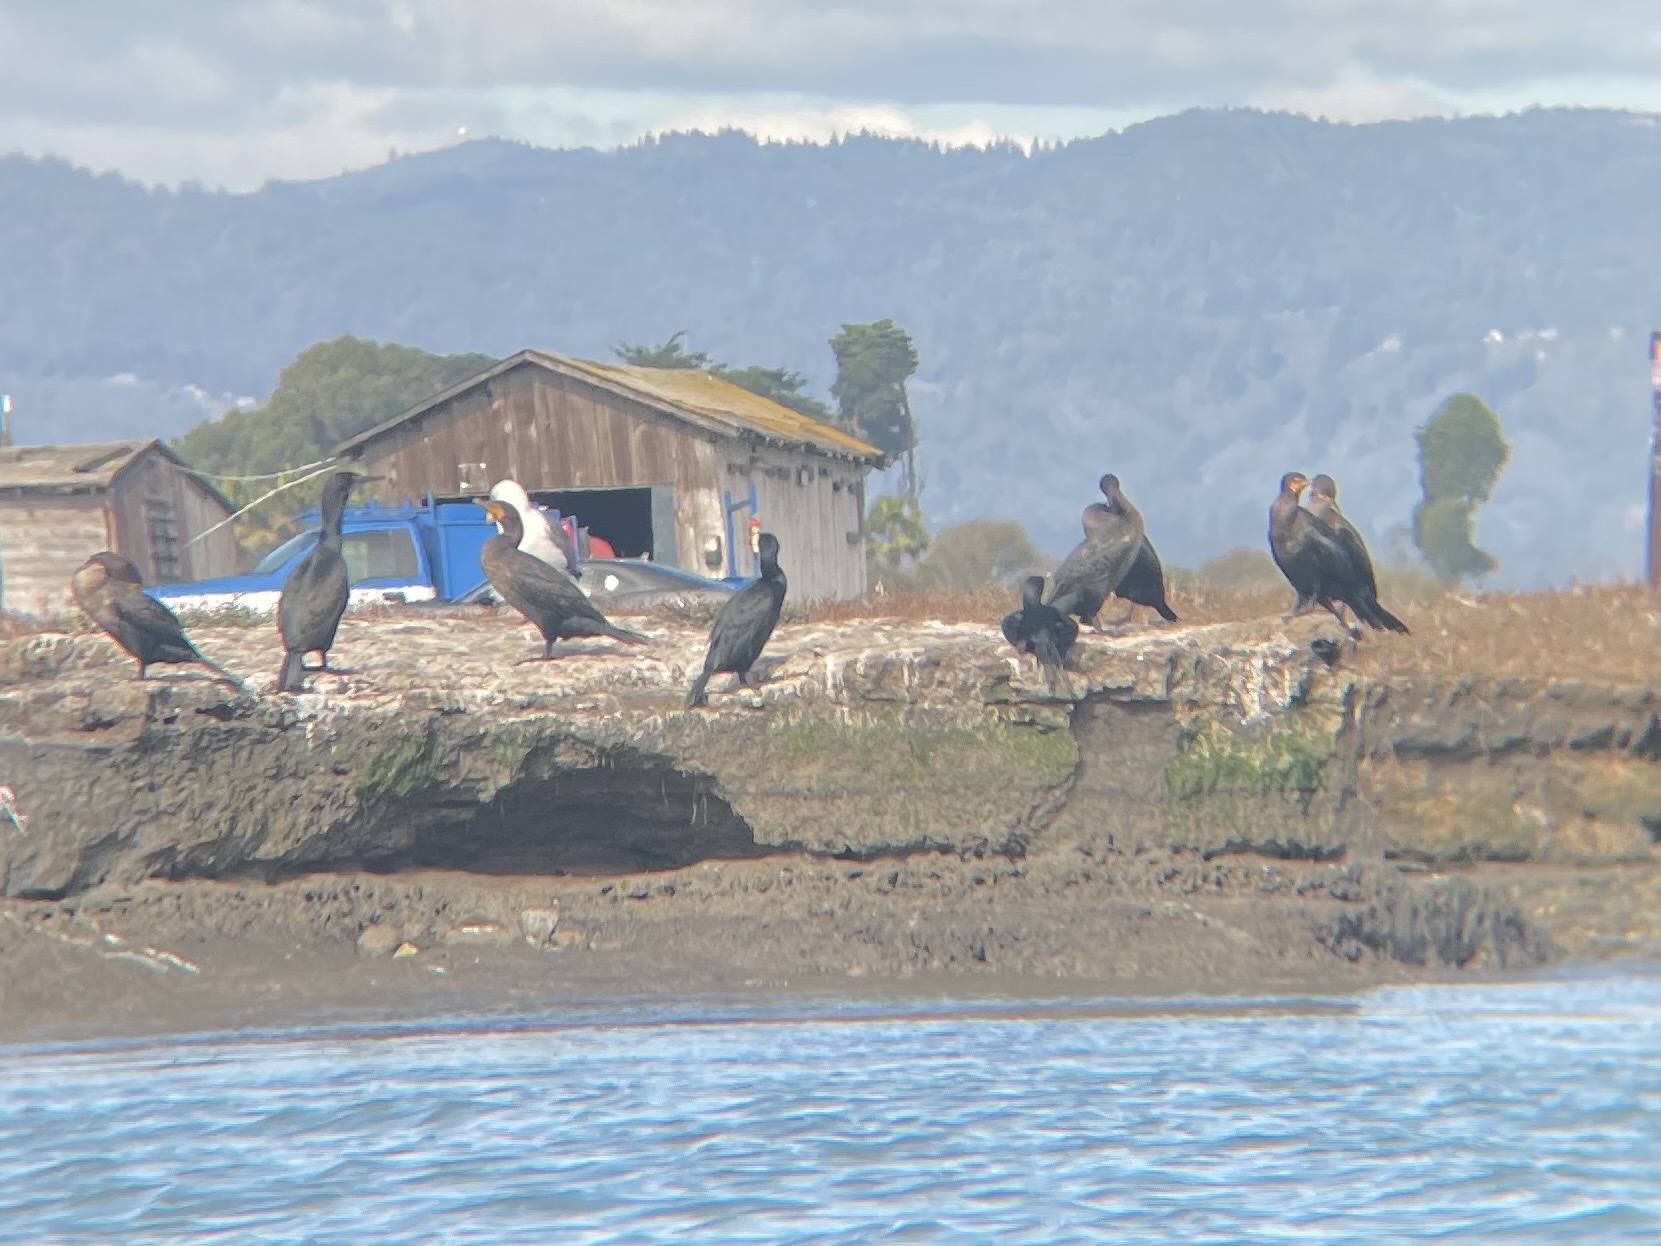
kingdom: Animalia
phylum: Chordata
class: Aves
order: Suliformes
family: Phalacrocoracidae
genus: Urile
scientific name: Urile penicillatus
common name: Brandt's cormorant
